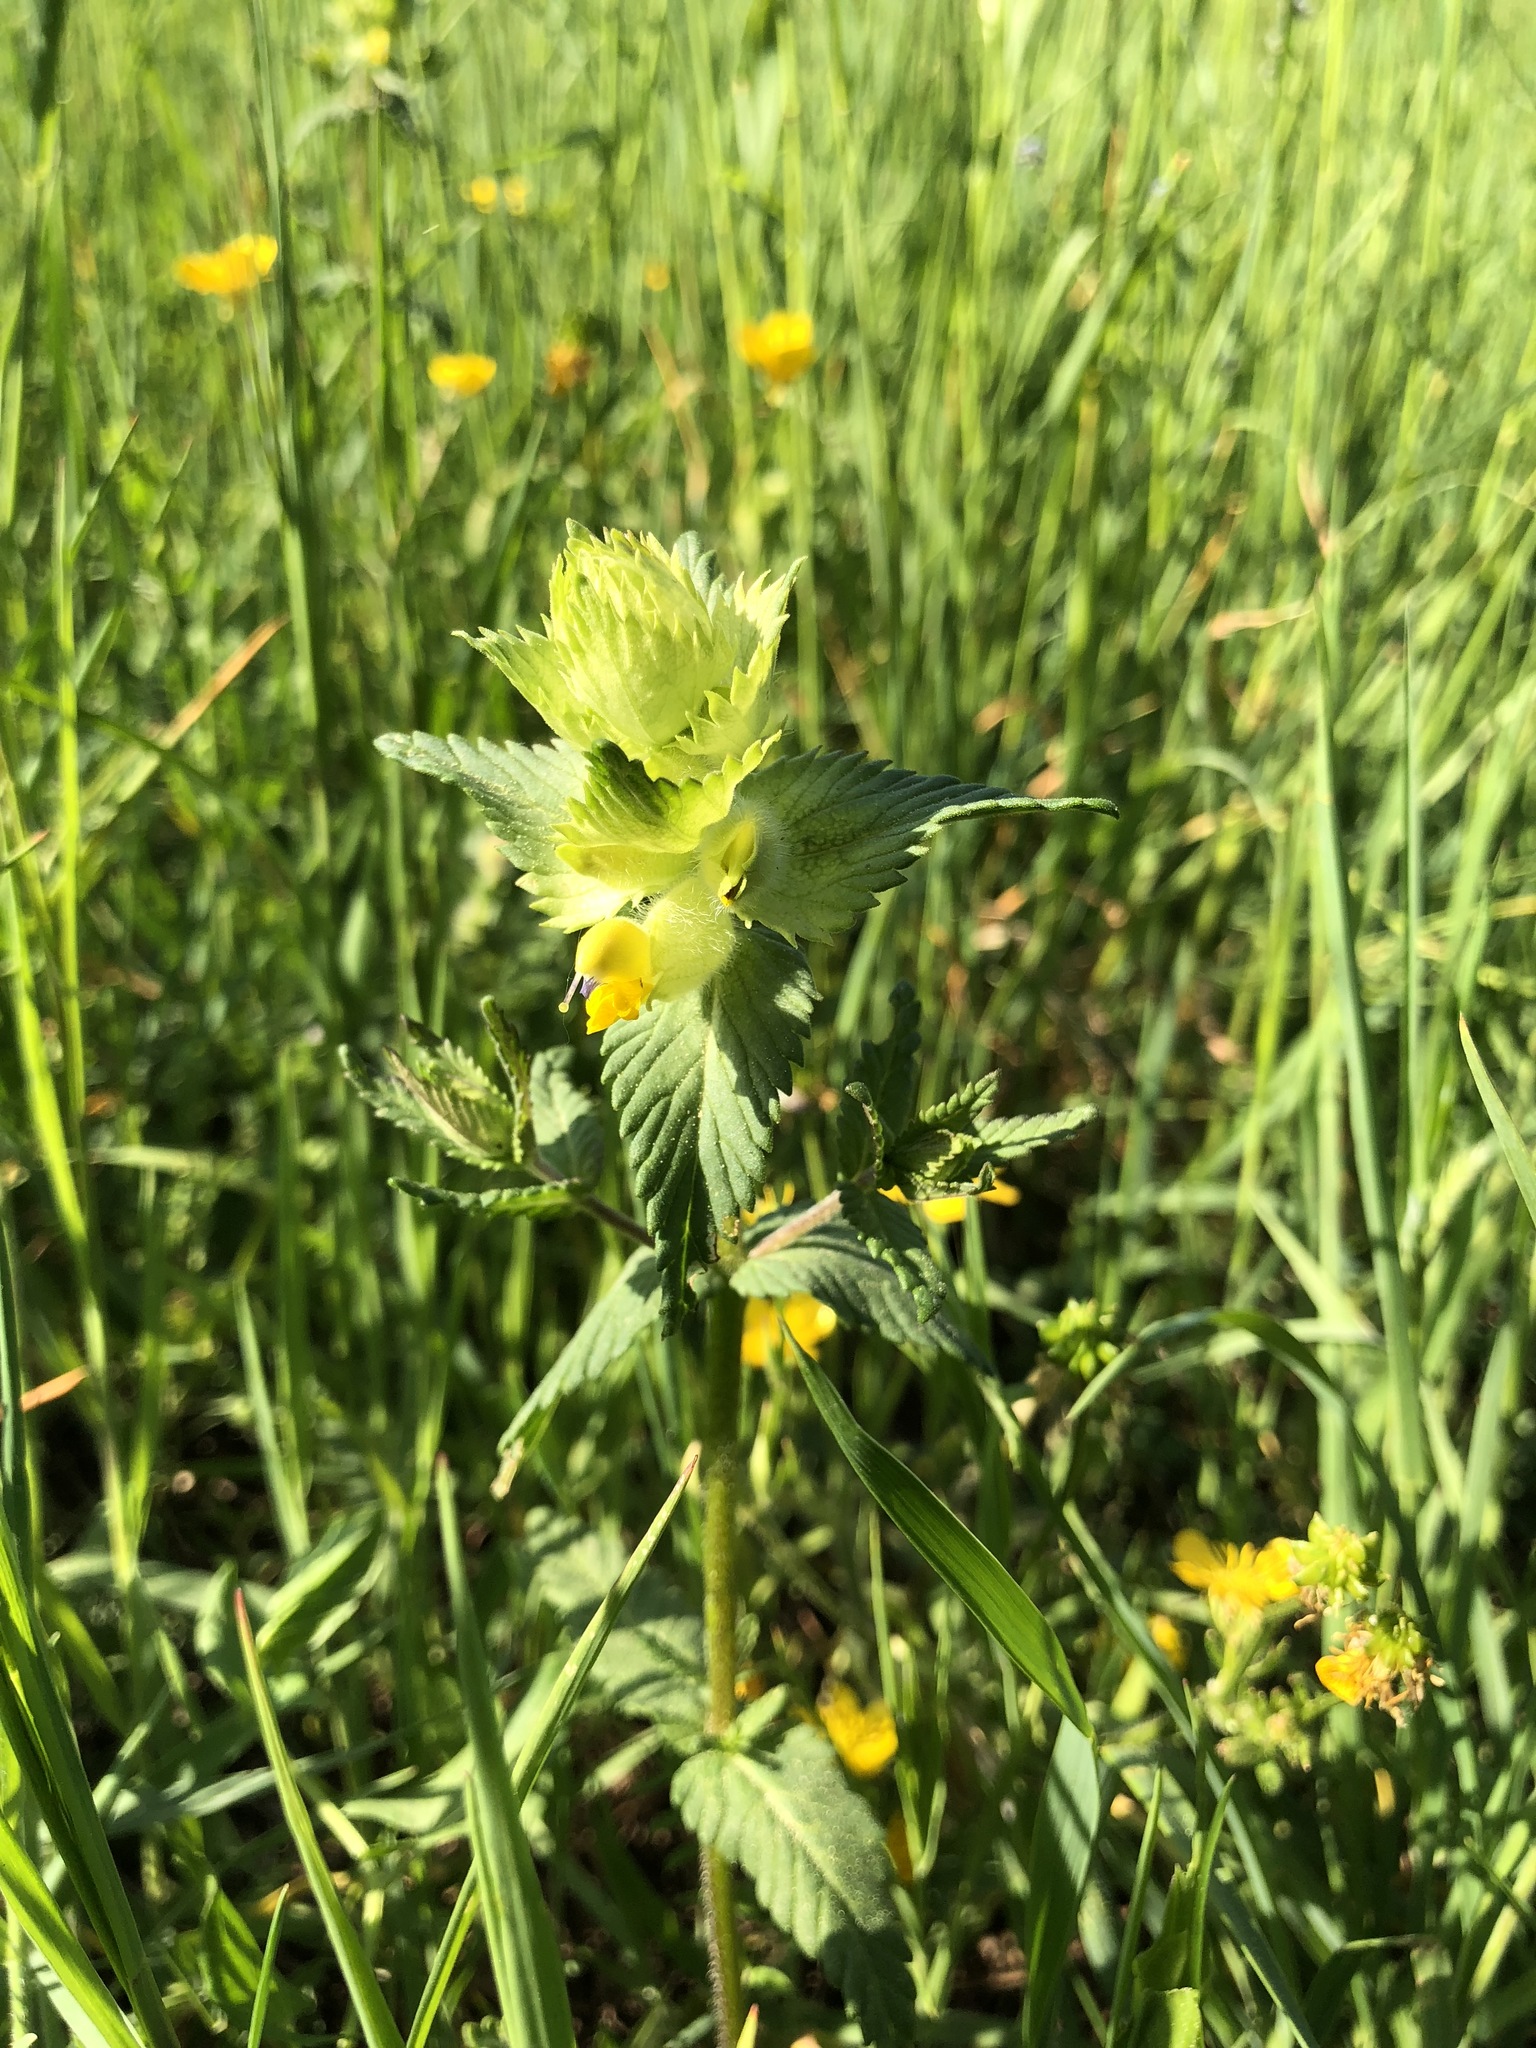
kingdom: Plantae
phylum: Tracheophyta
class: Magnoliopsida
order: Lamiales
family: Orobanchaceae
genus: Rhinanthus
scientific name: Rhinanthus alectorolophus
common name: Greater yellow-rattle
